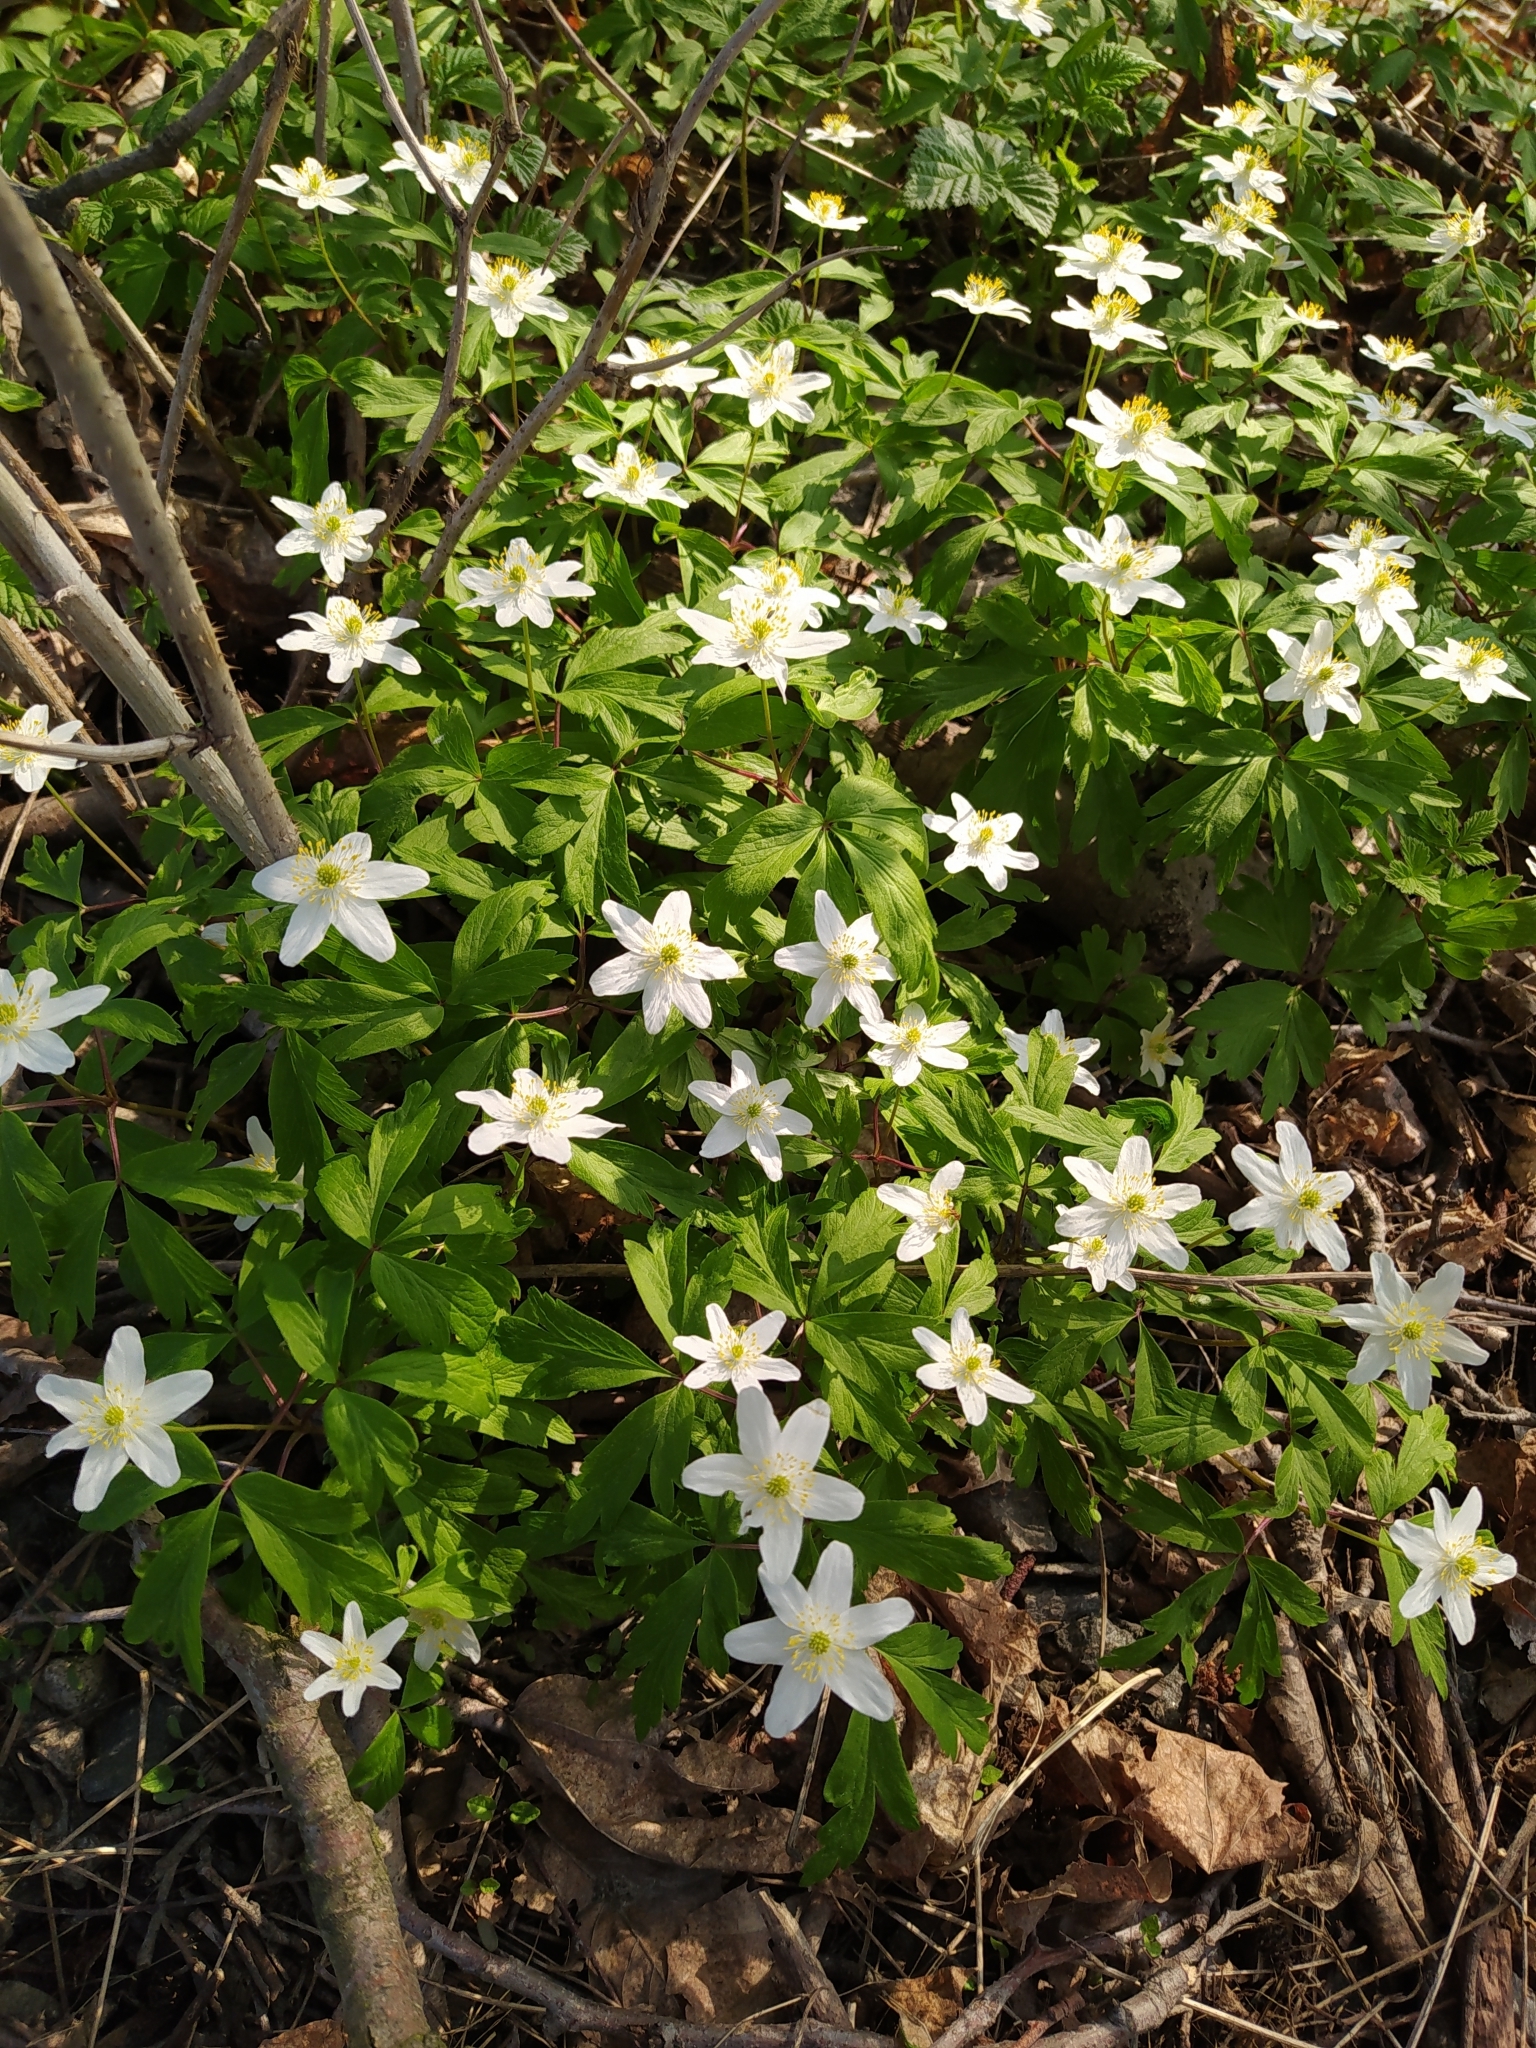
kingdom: Plantae
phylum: Tracheophyta
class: Magnoliopsida
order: Ranunculales
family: Ranunculaceae
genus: Anemone
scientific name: Anemone nemorosa
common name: Wood anemone
